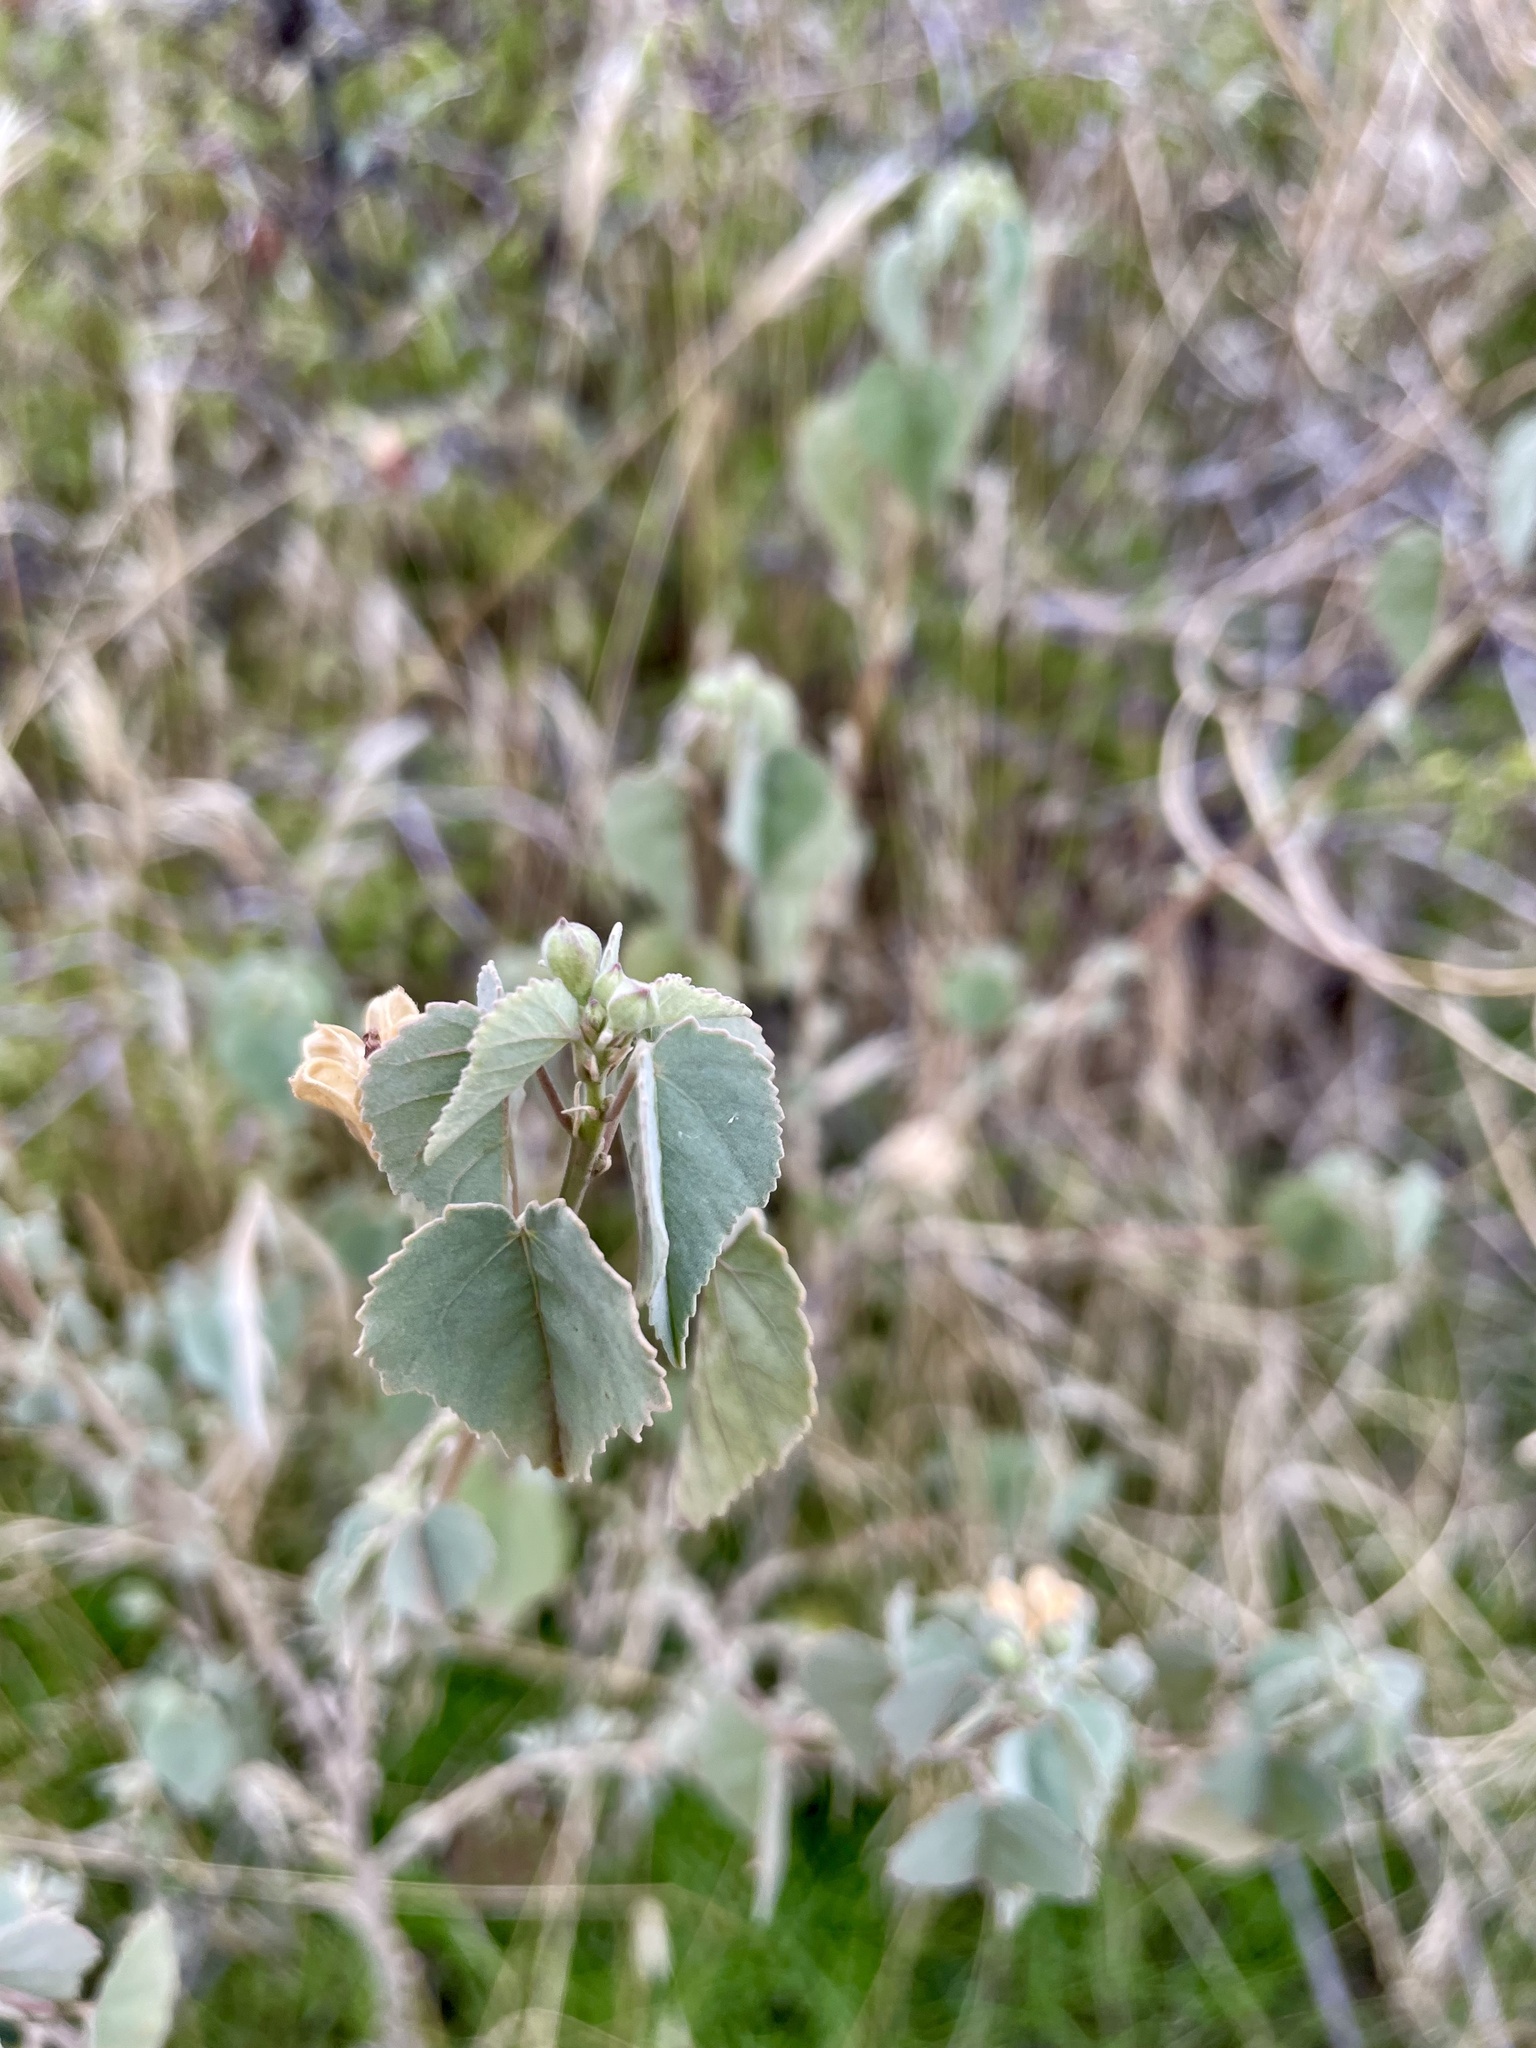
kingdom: Plantae
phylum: Tracheophyta
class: Magnoliopsida
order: Malvales
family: Malvaceae
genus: Abutilon
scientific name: Abutilon incanum
